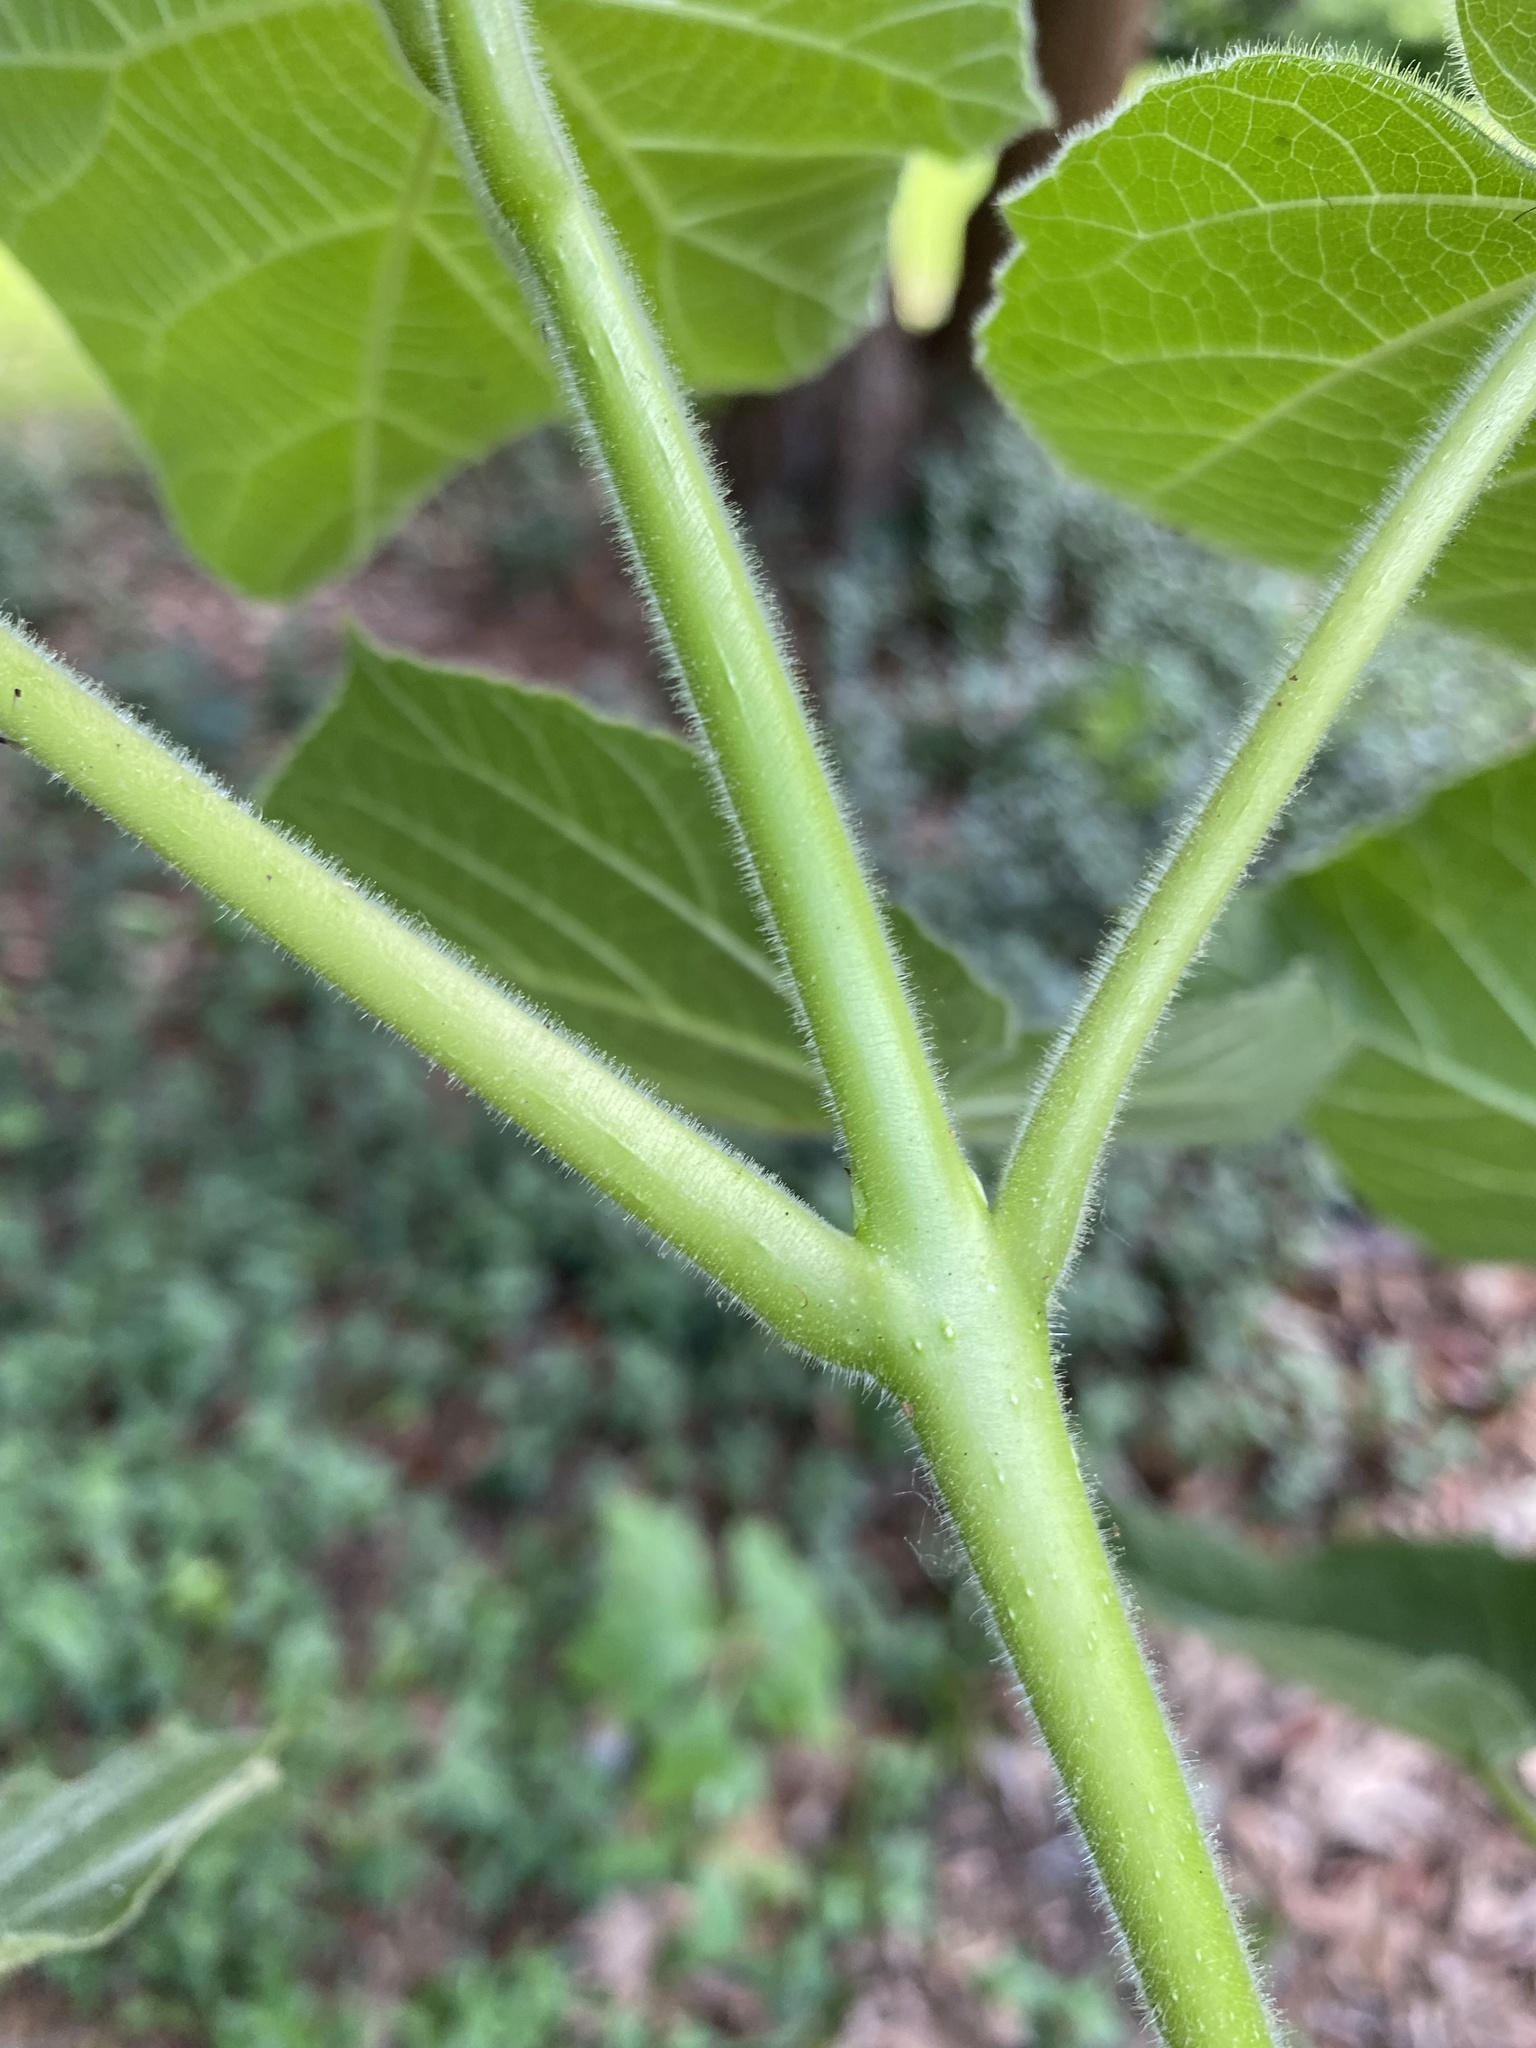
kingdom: Plantae
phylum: Tracheophyta
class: Magnoliopsida
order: Malvales
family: Malvaceae
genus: Firmiana
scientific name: Firmiana simplex
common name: Chinese parasoltree
